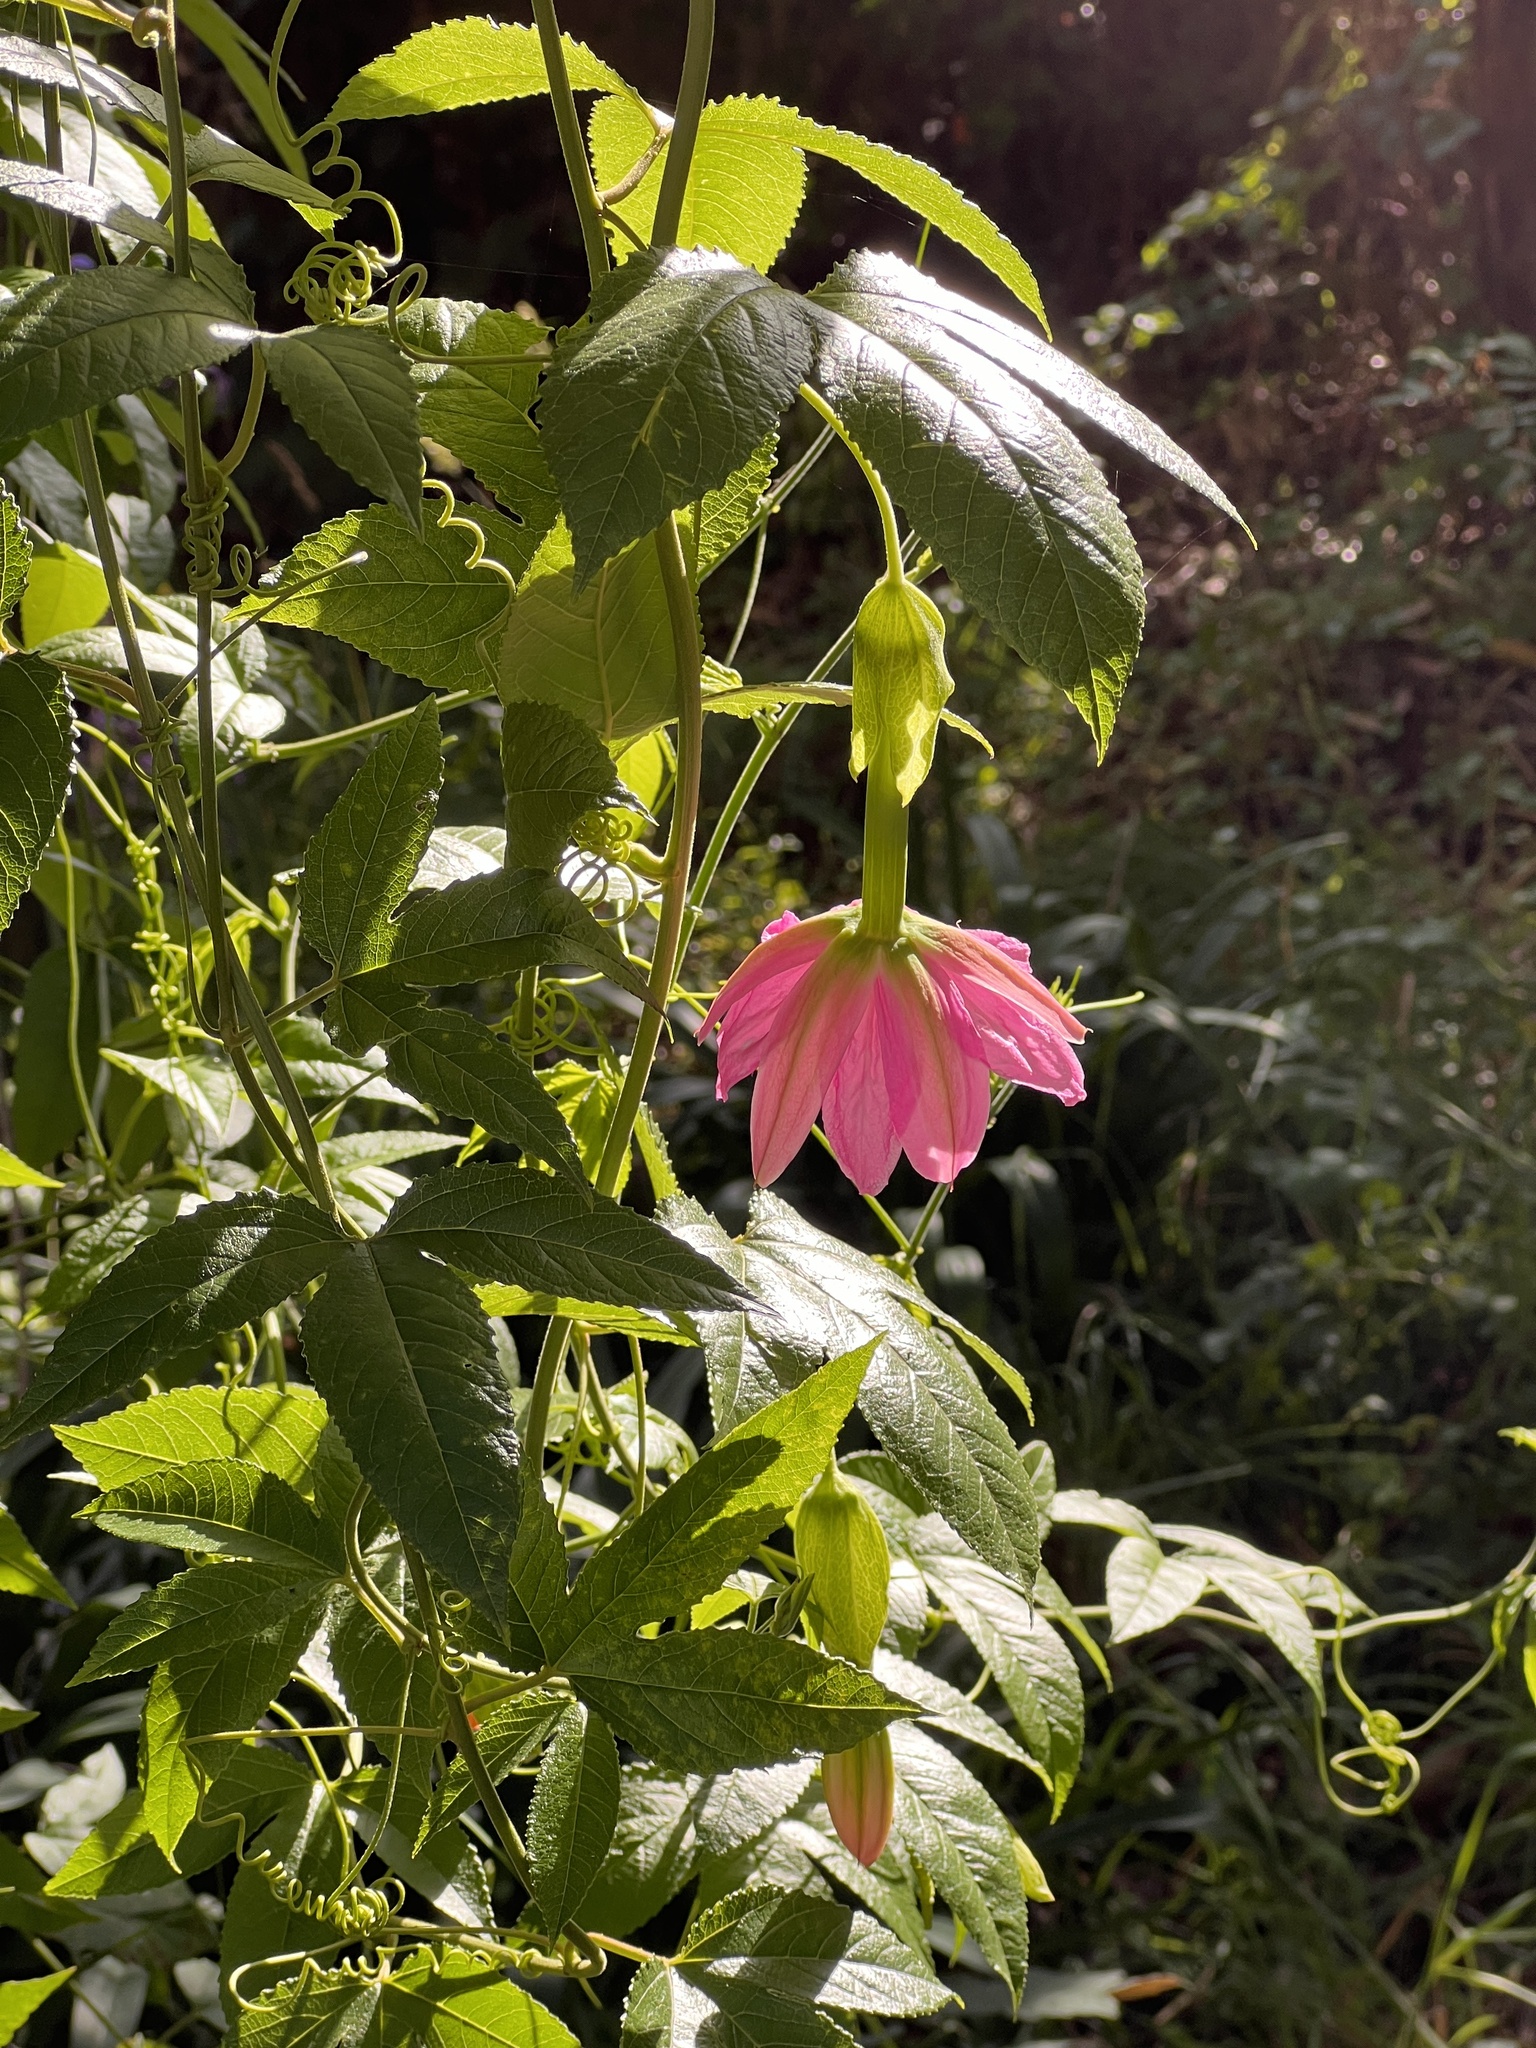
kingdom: Plantae
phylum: Tracheophyta
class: Magnoliopsida
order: Malpighiales
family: Passifloraceae
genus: Passiflora
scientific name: Passiflora tarminiana
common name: Banana poka
